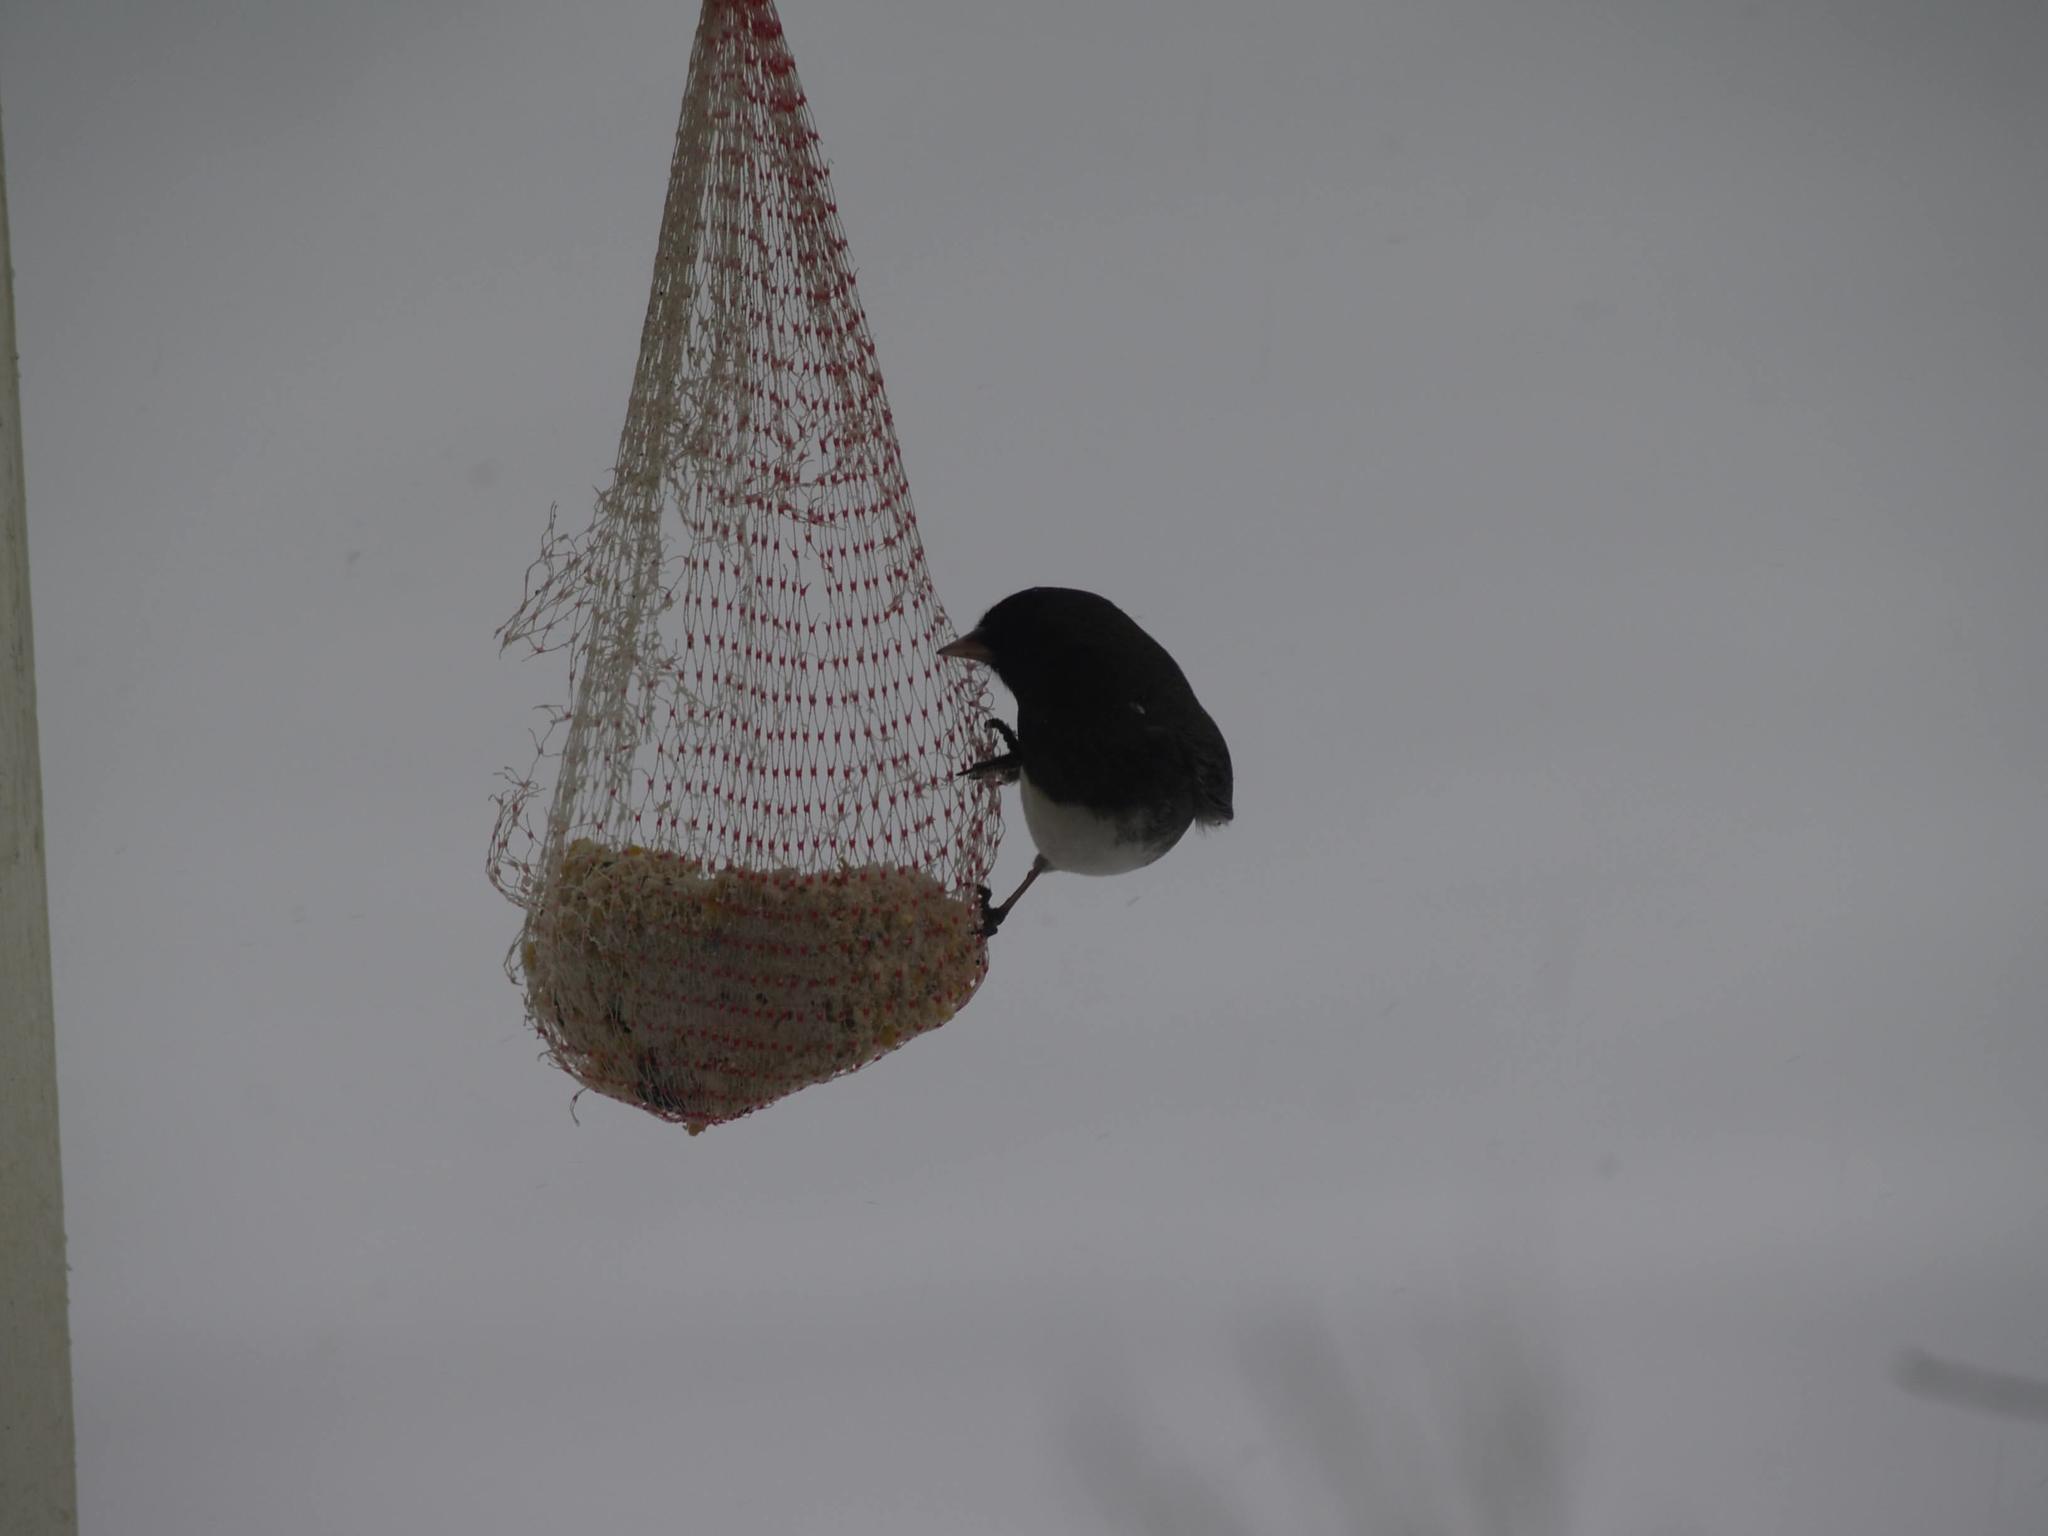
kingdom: Animalia
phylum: Chordata
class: Aves
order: Passeriformes
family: Passerellidae
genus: Junco
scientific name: Junco hyemalis
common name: Dark-eyed junco
